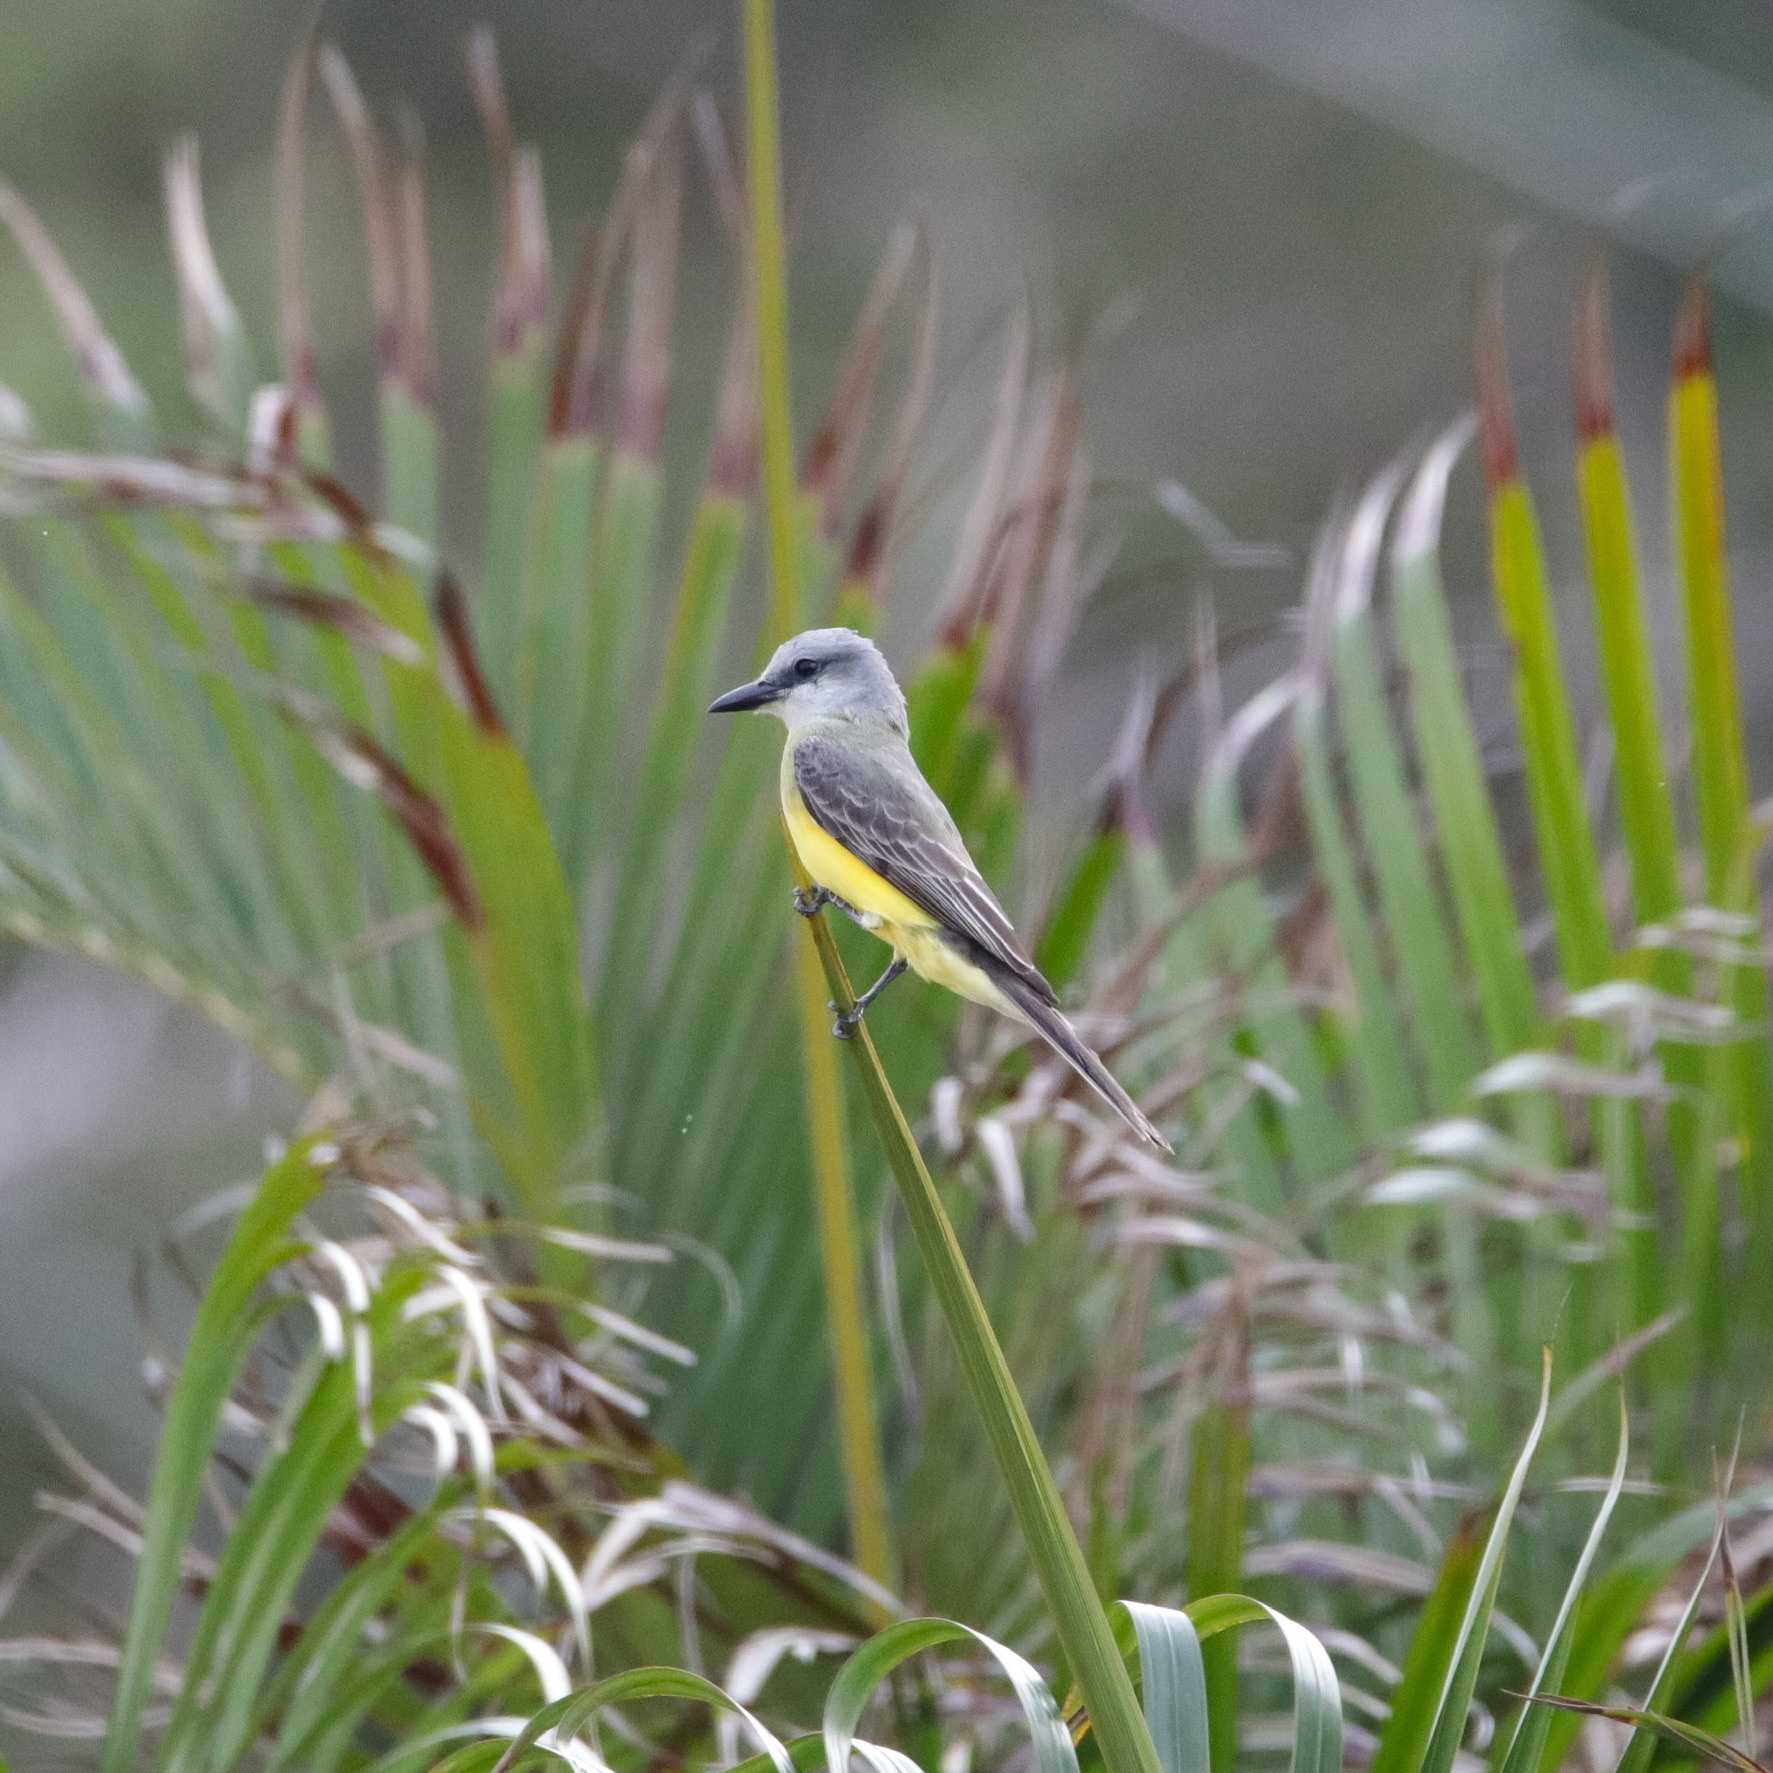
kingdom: Animalia
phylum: Chordata
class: Aves
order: Passeriformes
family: Tyrannidae
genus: Tyrannus
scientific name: Tyrannus melancholicus
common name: Tropical kingbird
